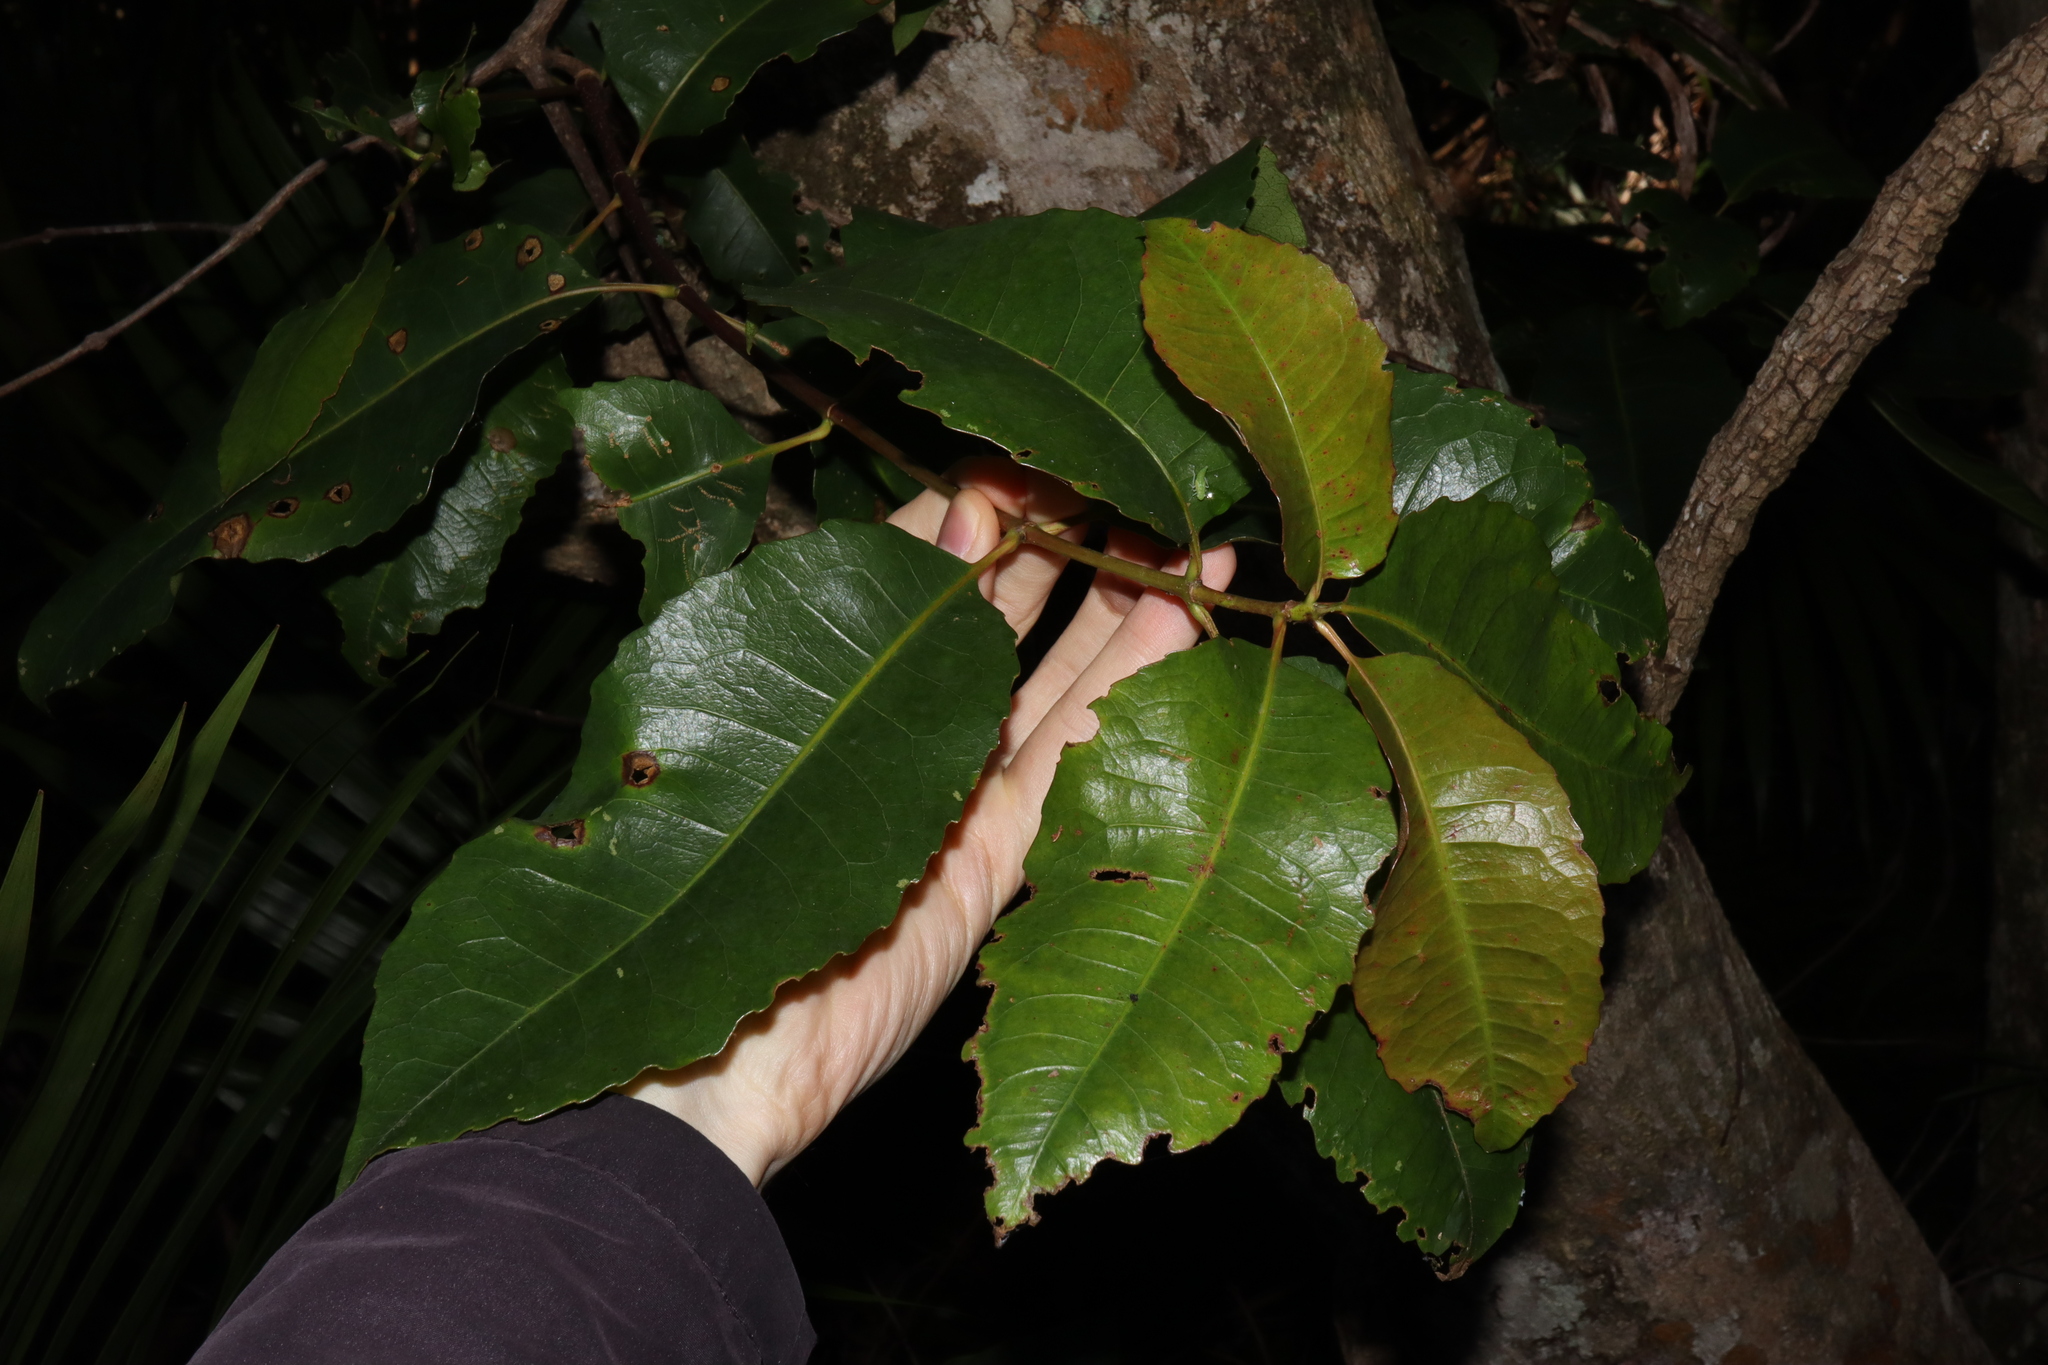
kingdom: Plantae
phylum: Tracheophyta
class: Magnoliopsida
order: Oxalidales
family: Cunoniaceae
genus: Schizomeria
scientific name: Schizomeria ovata
